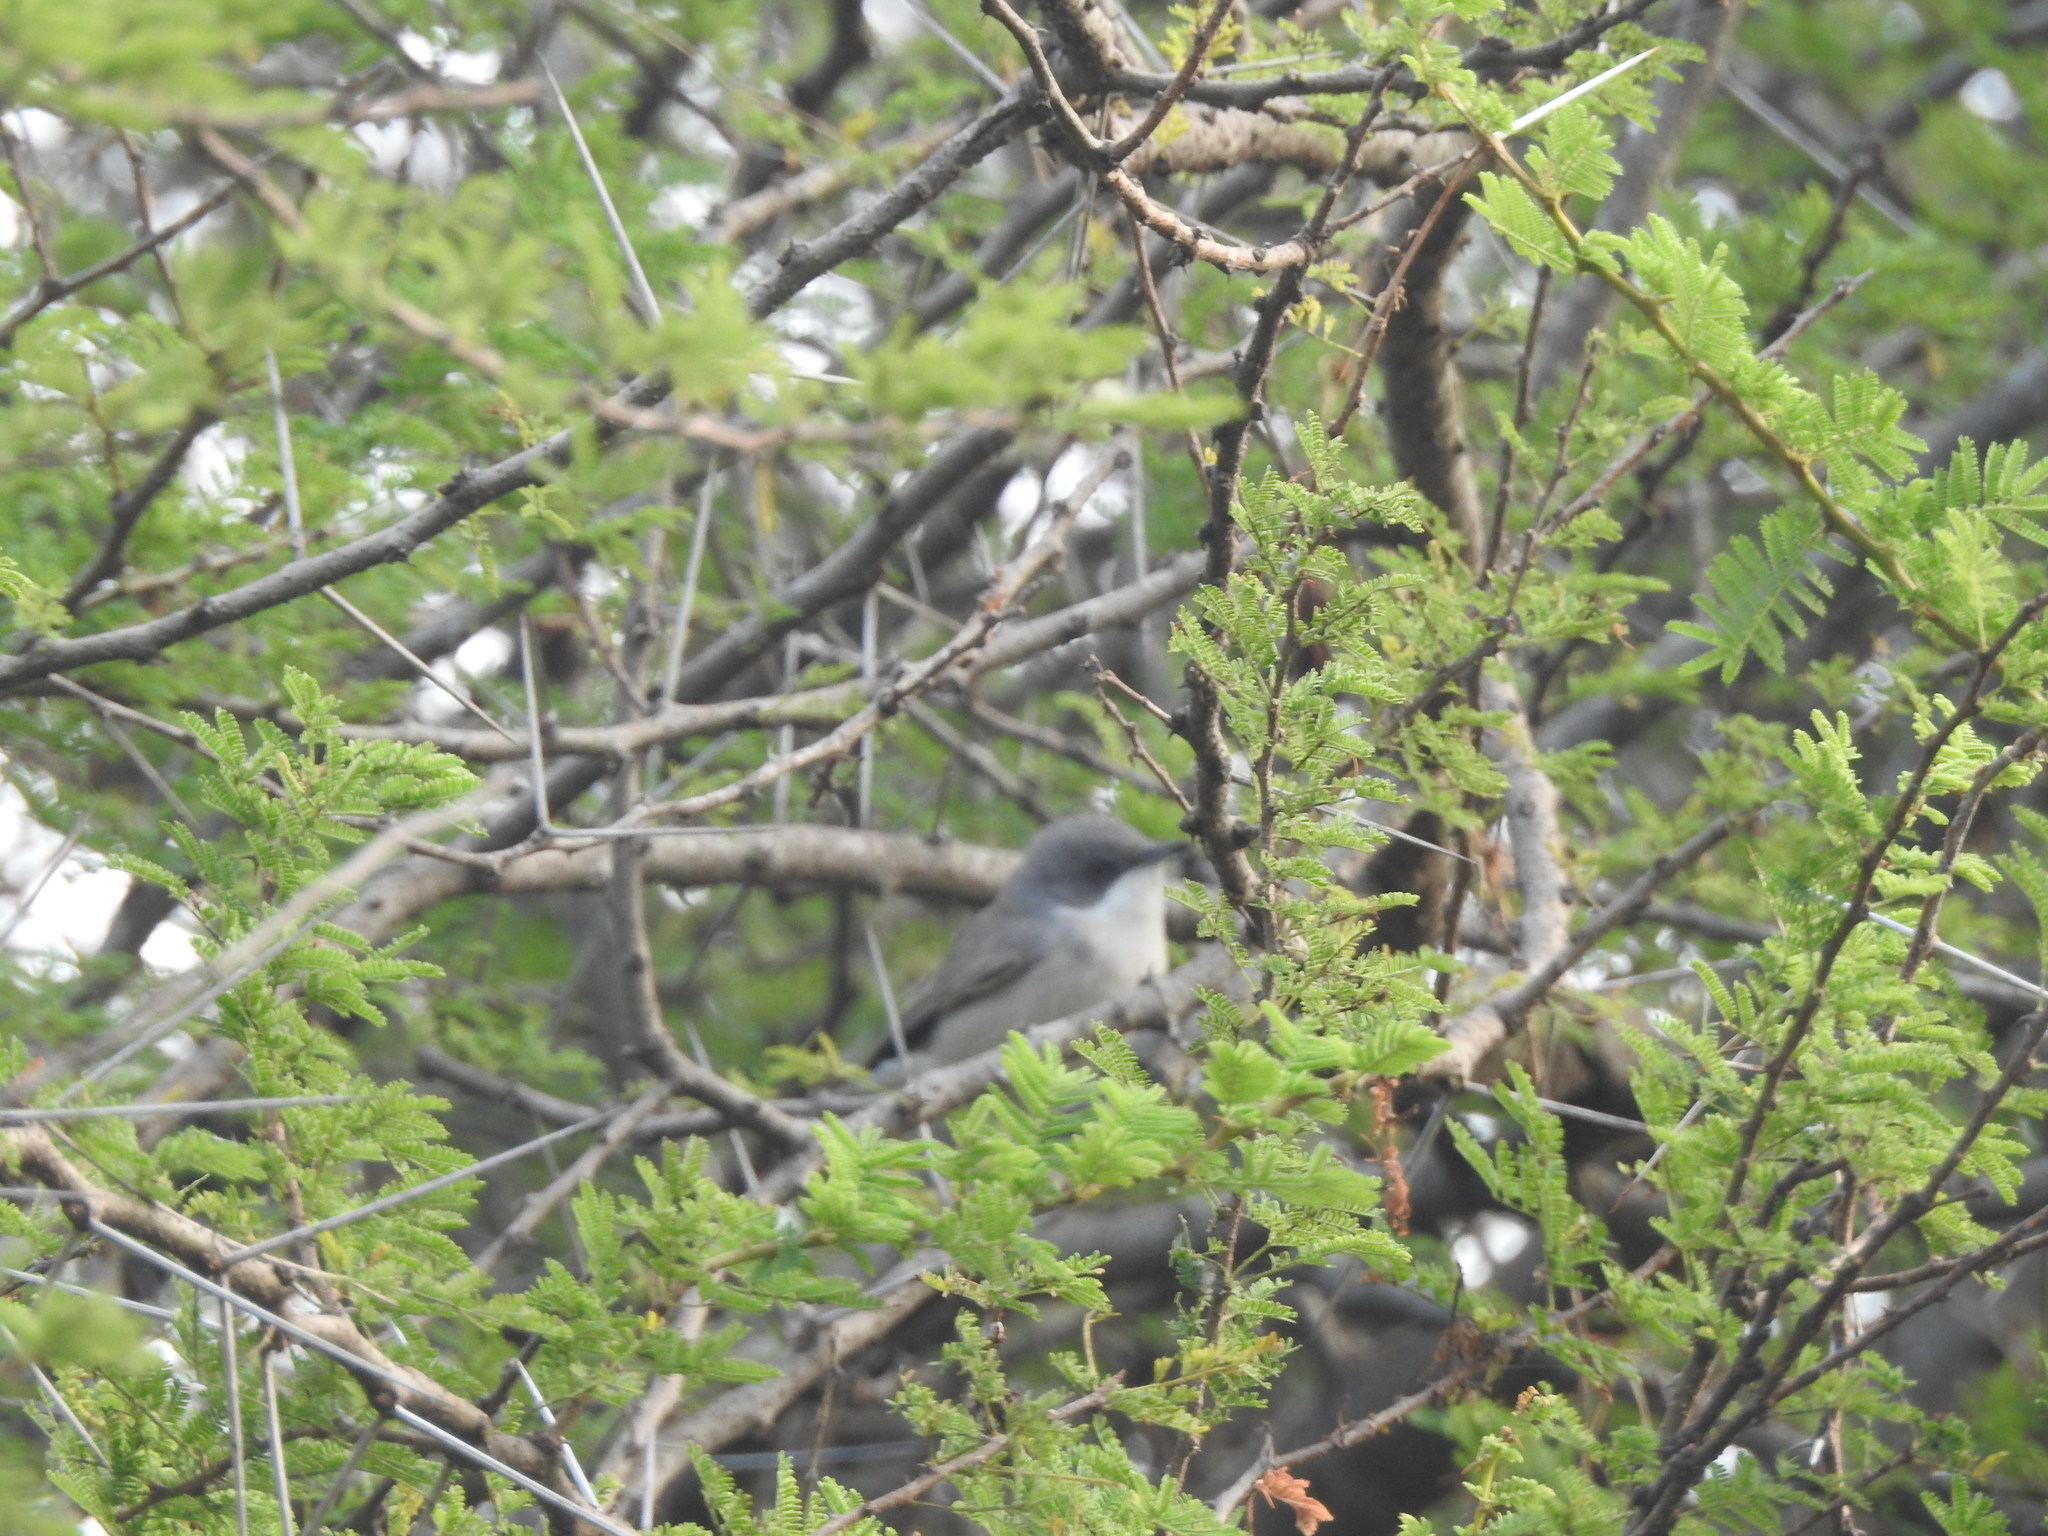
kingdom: Animalia
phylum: Chordata
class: Aves
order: Passeriformes
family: Sylviidae
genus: Sylvia
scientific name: Sylvia curruca
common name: Lesser whitethroat
